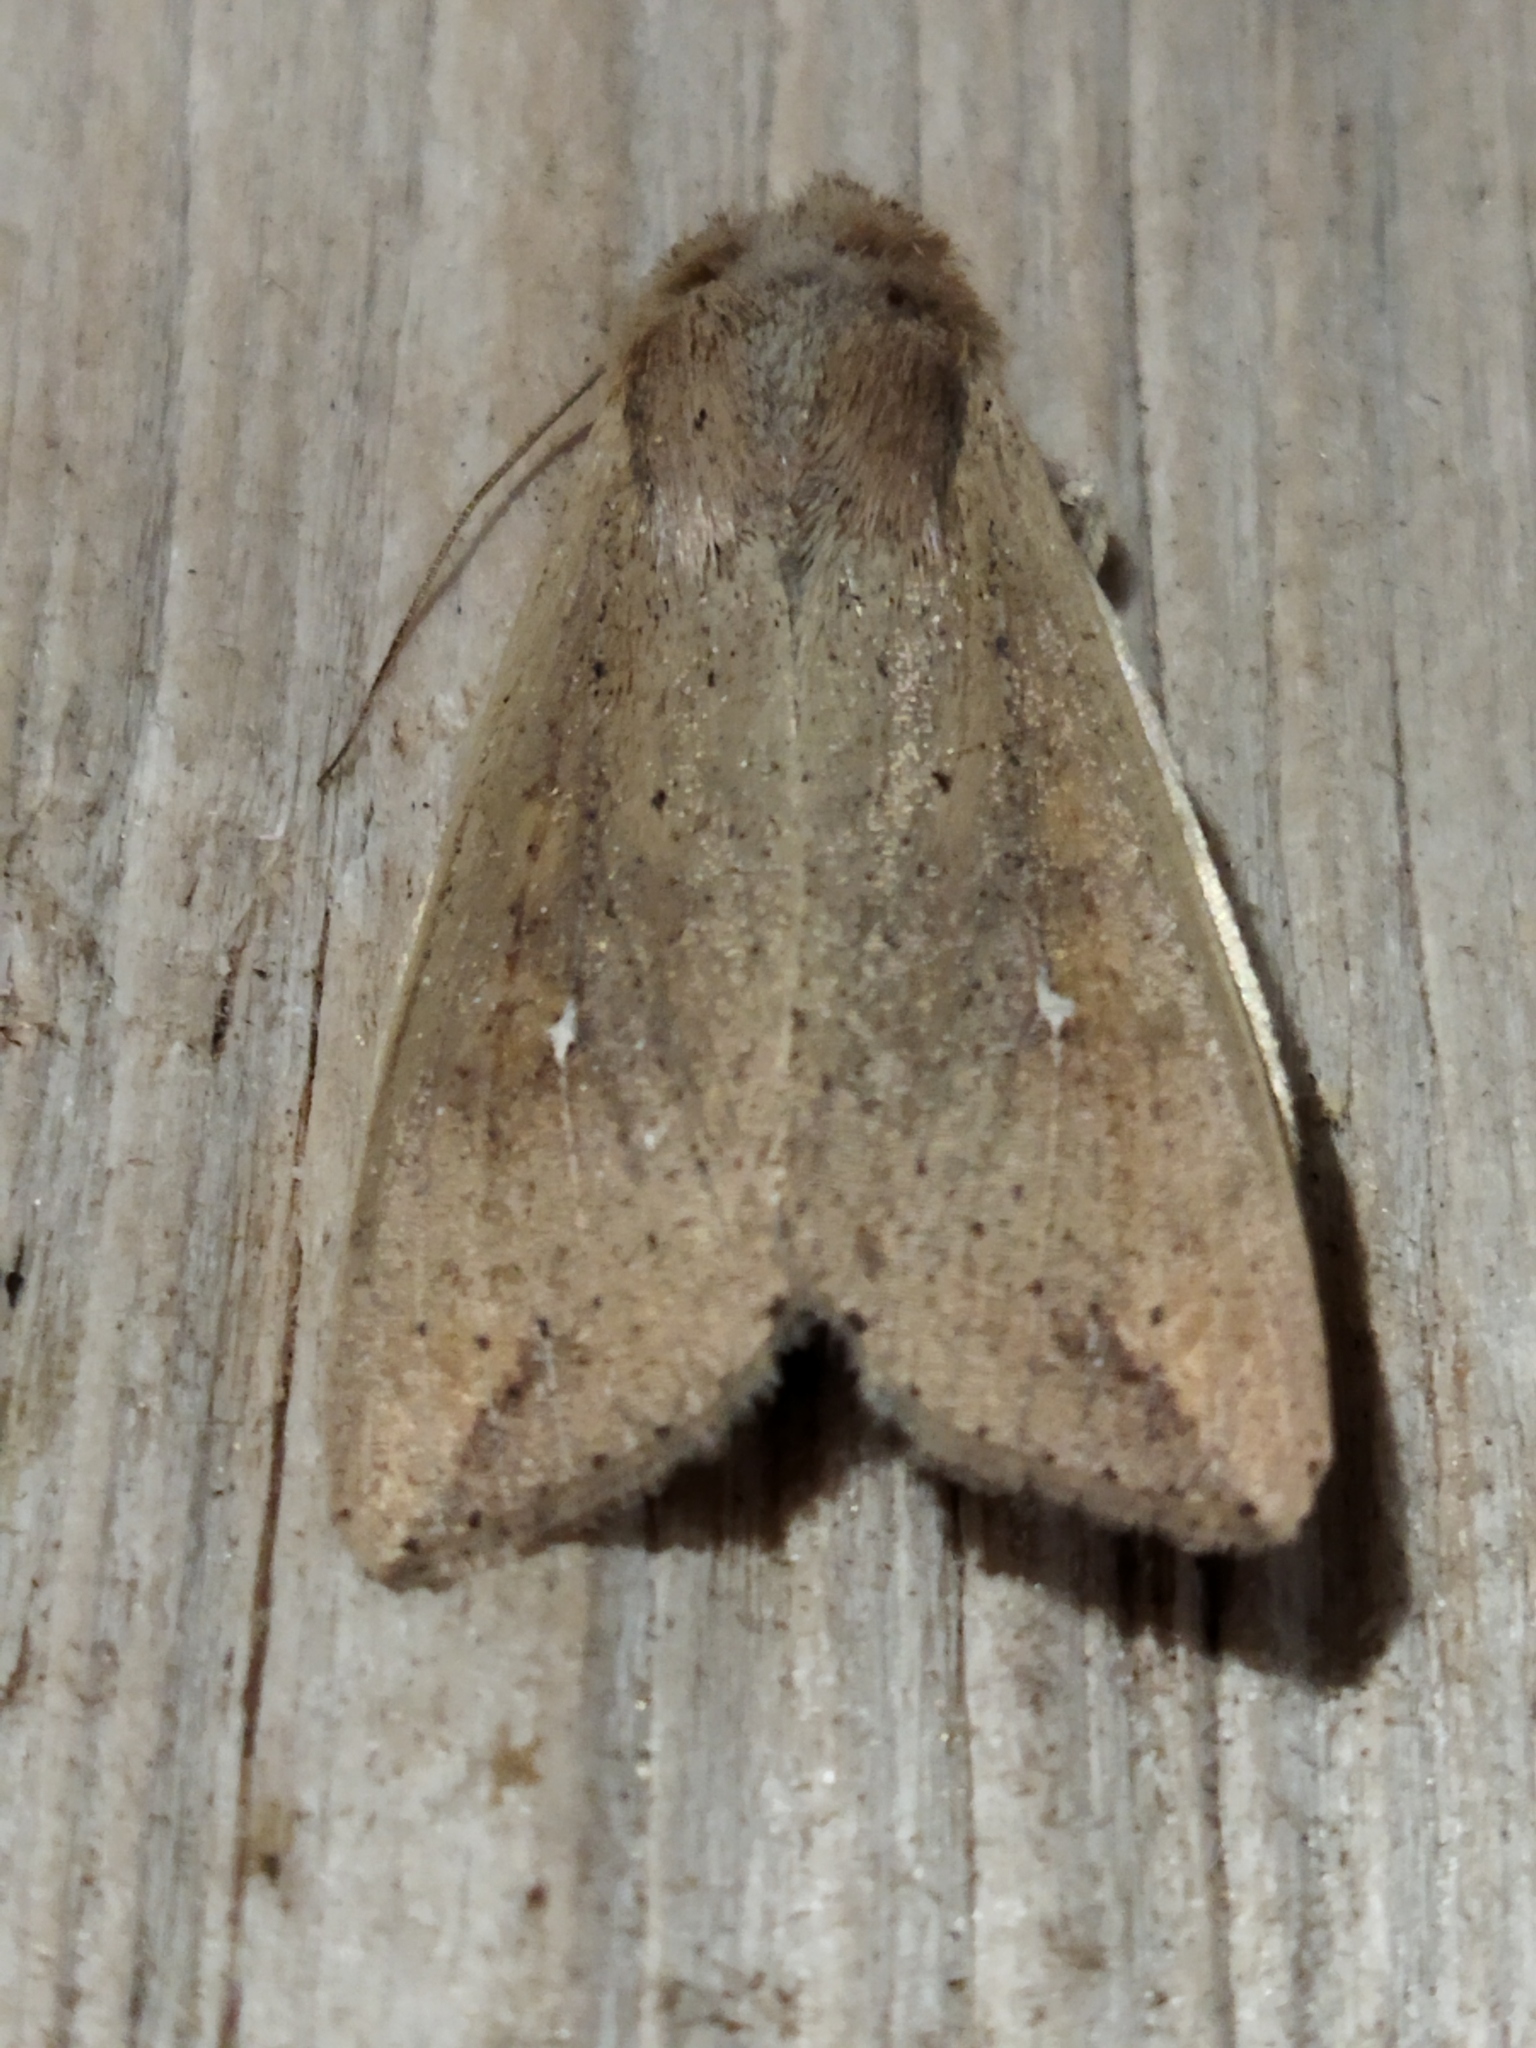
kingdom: Animalia
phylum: Arthropoda
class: Insecta
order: Lepidoptera
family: Noctuidae
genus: Mythimna
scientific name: Mythimna unipuncta
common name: White-speck
